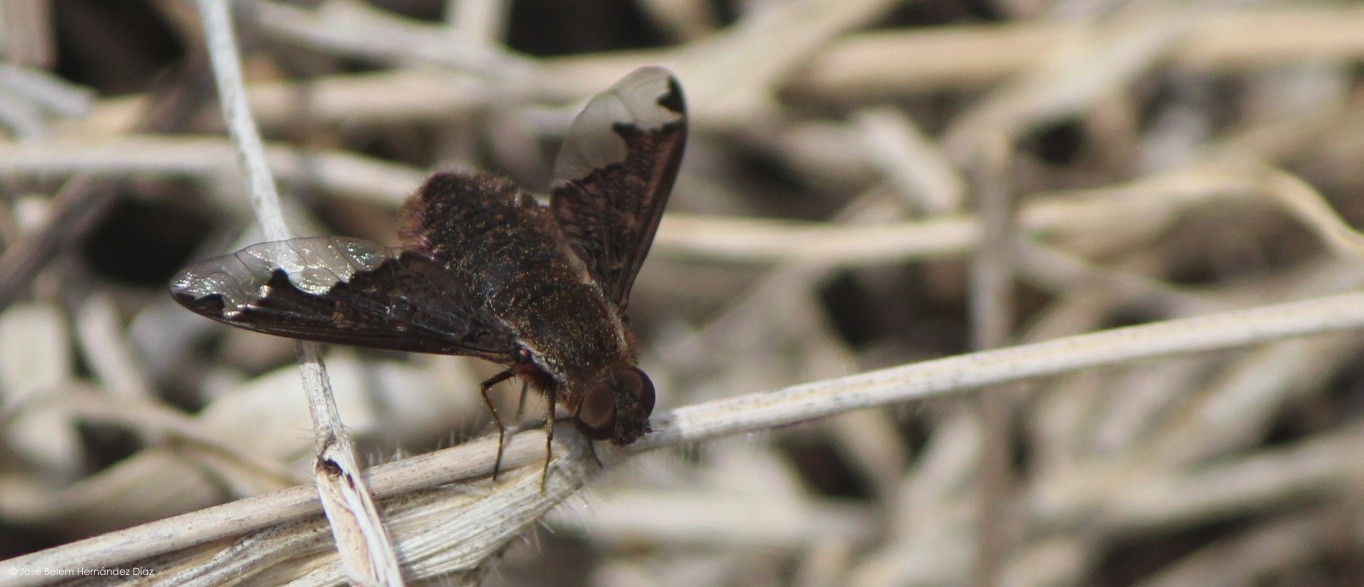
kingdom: Animalia
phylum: Arthropoda
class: Insecta
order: Diptera
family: Bombyliidae
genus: Hemipenthes
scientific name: Hemipenthes sinuosus
